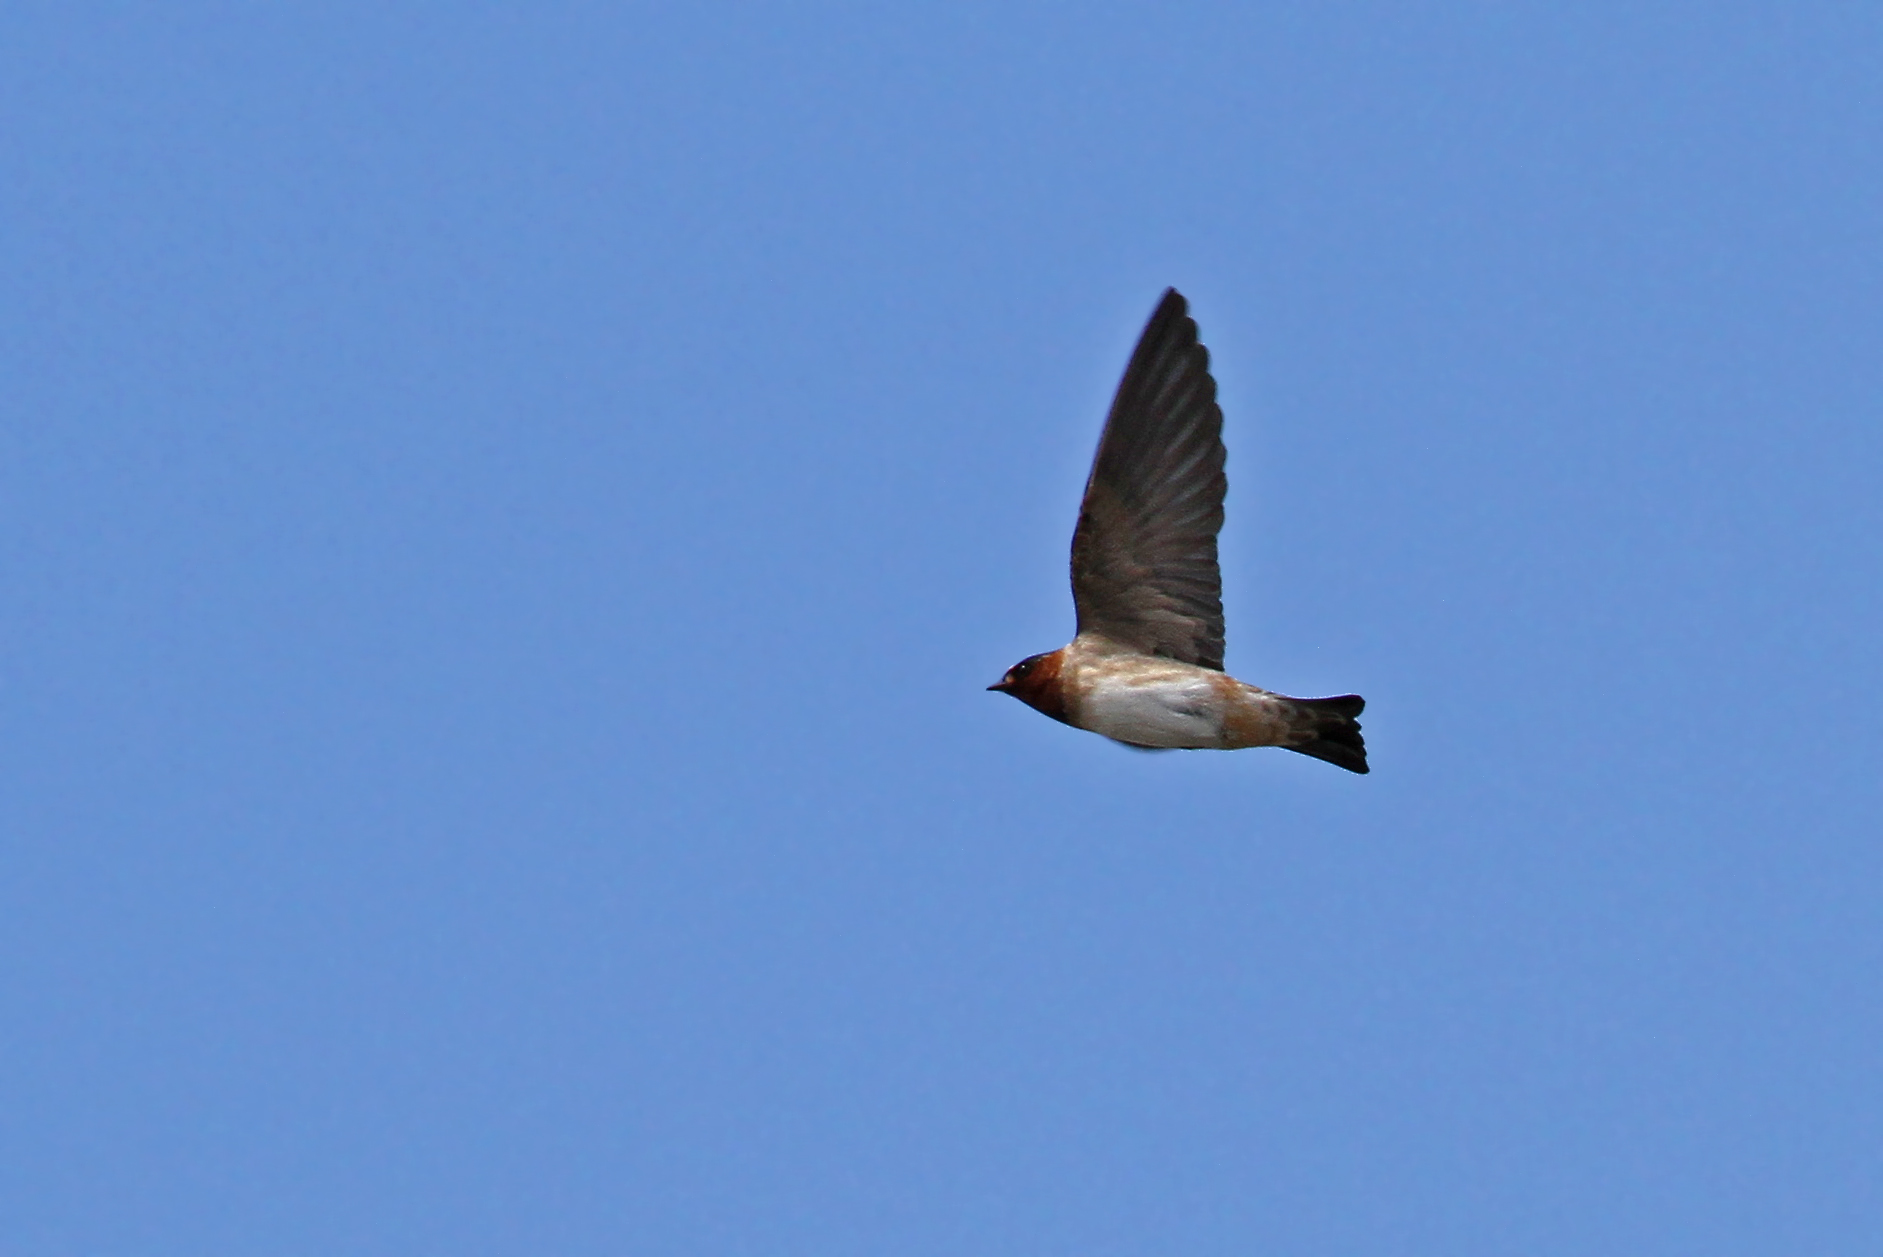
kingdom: Animalia
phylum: Chordata
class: Aves
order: Passeriformes
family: Hirundinidae
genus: Petrochelidon
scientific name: Petrochelidon pyrrhonota
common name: American cliff swallow
